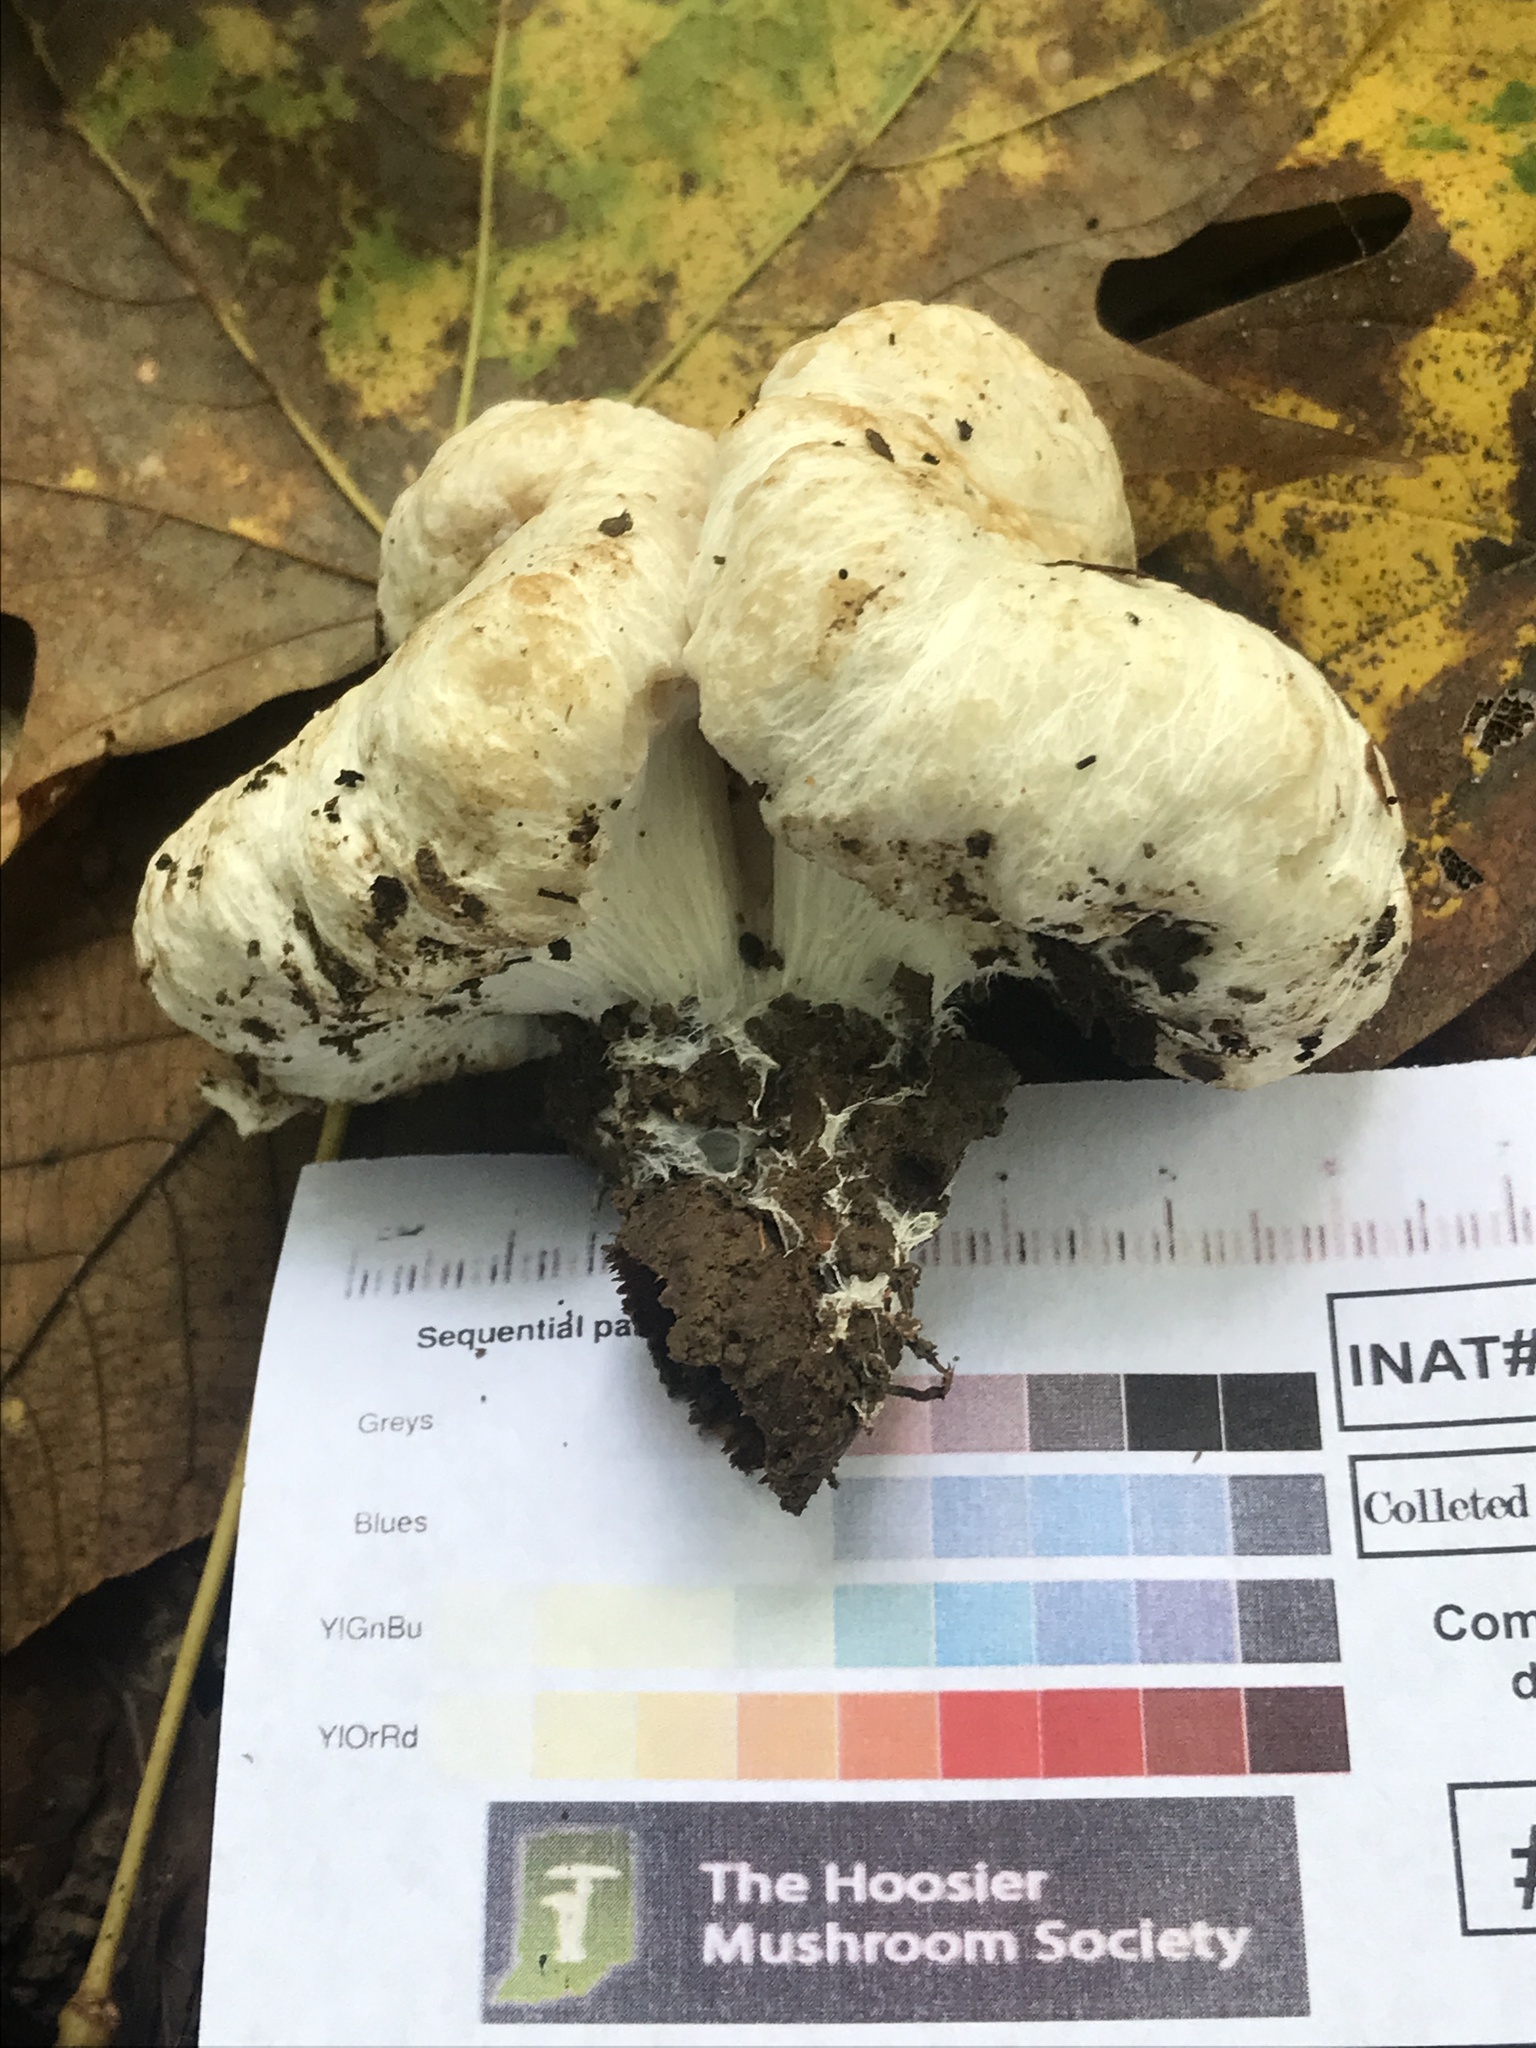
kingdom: Fungi
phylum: Basidiomycota
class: Agaricomycetes
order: Agaricales
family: Entolomataceae
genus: Entoloma
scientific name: Entoloma abortivum
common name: Aborted entoloma
